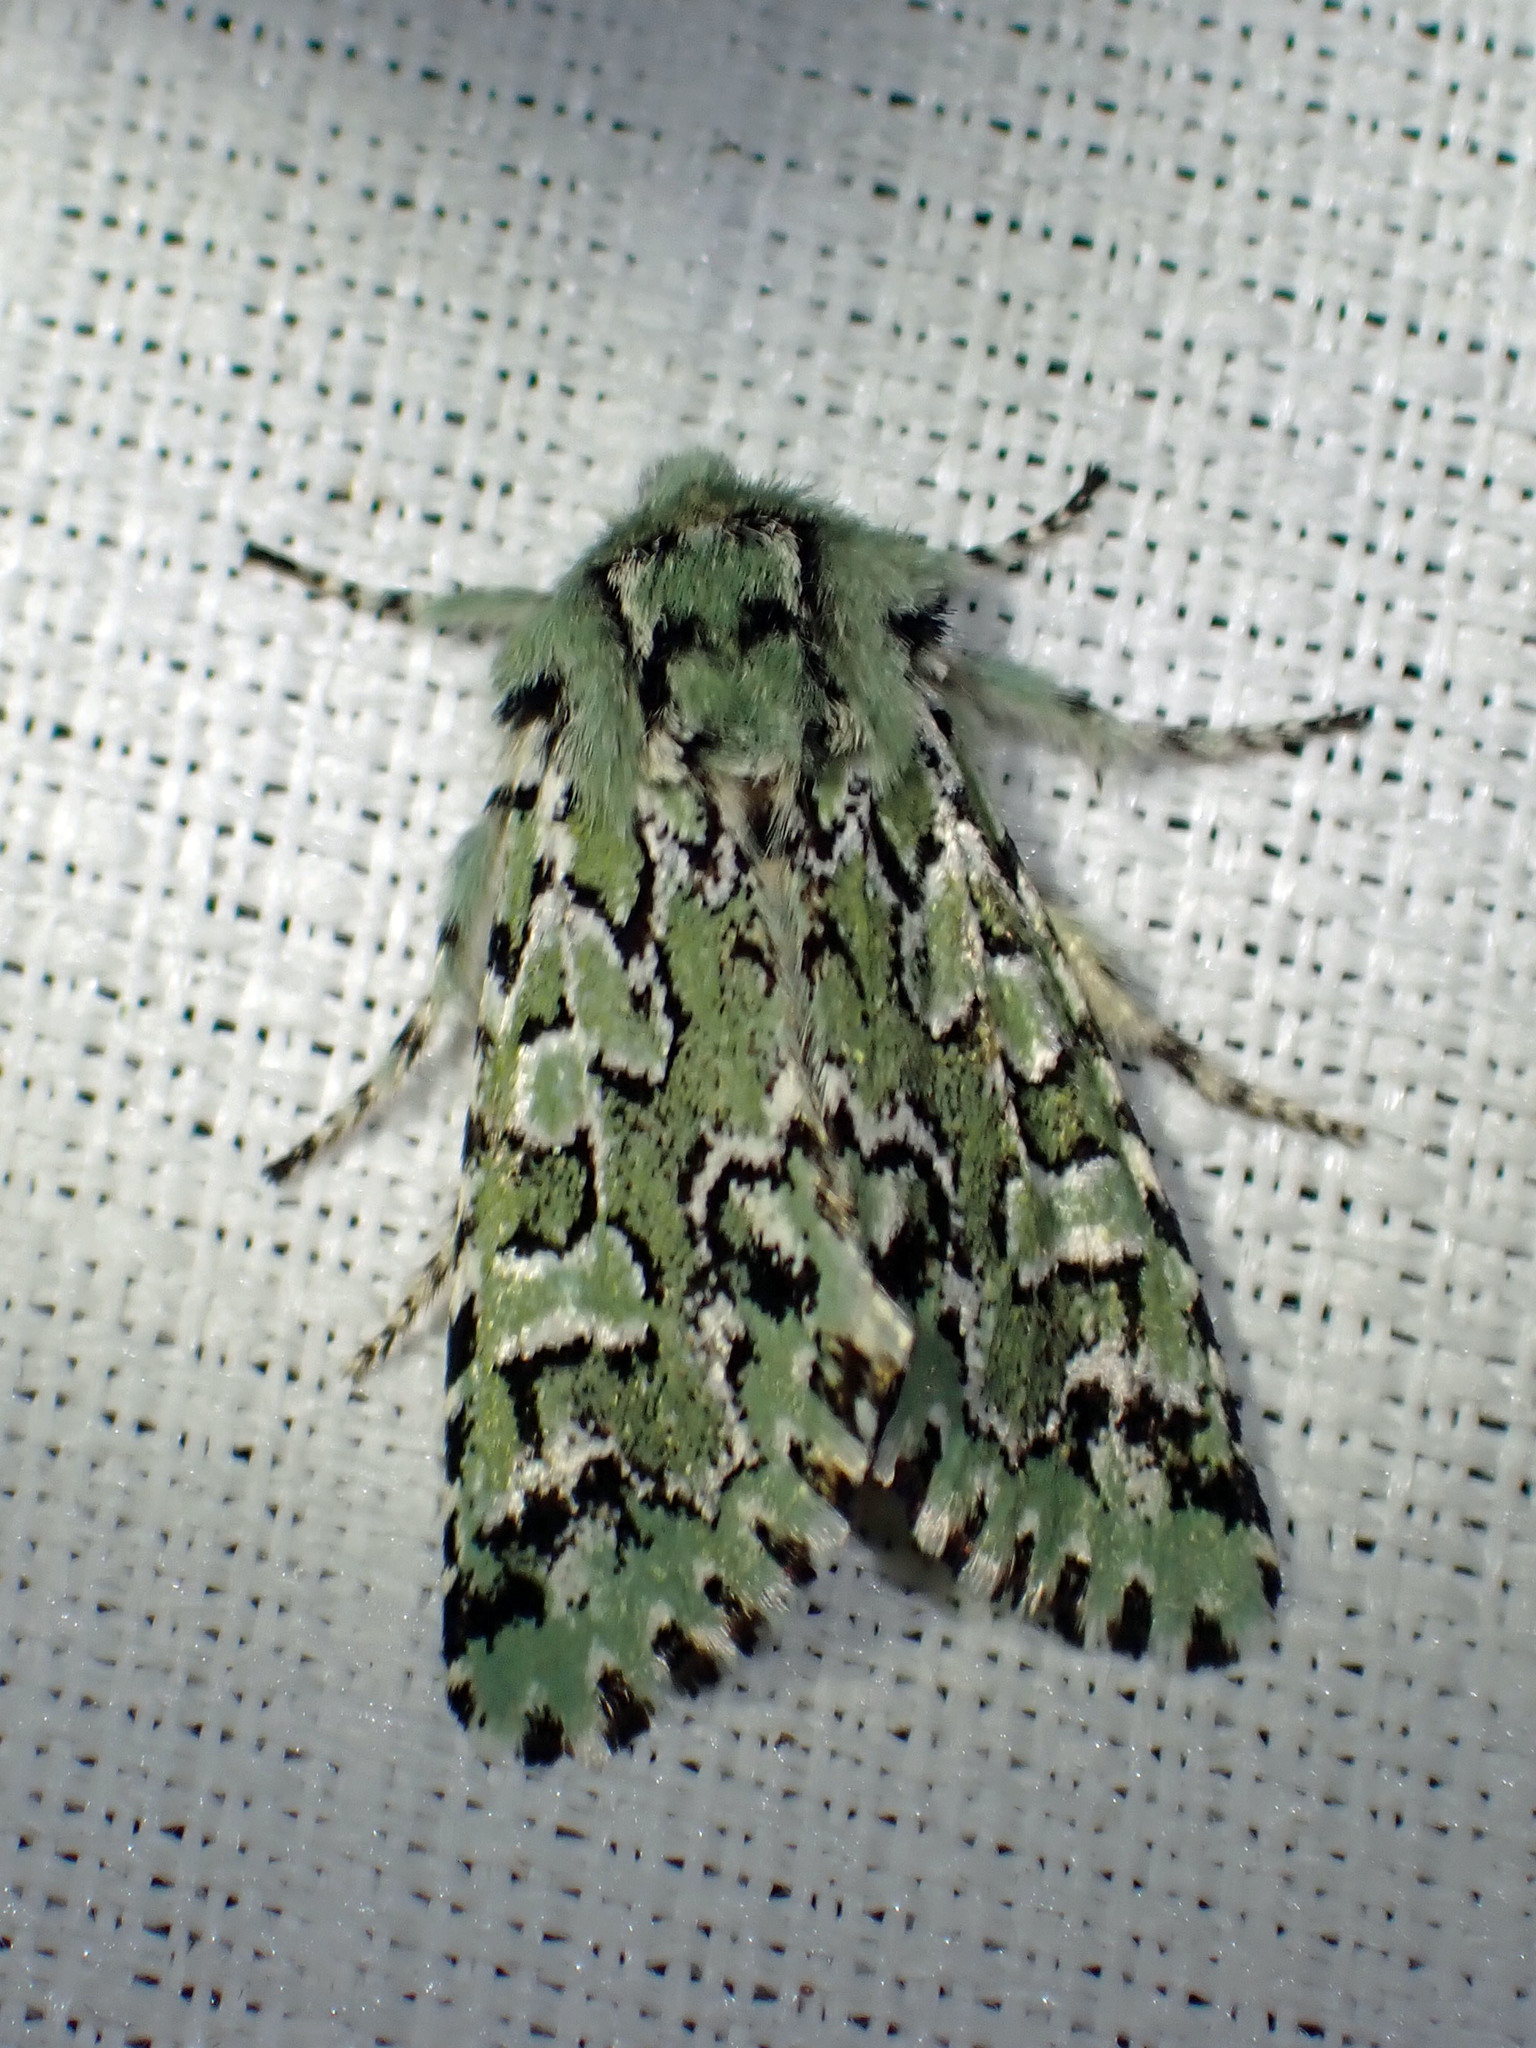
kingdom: Animalia
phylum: Arthropoda
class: Insecta
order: Lepidoptera
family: Noctuidae
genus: Feralia
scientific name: Feralia jocosa
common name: Joker
